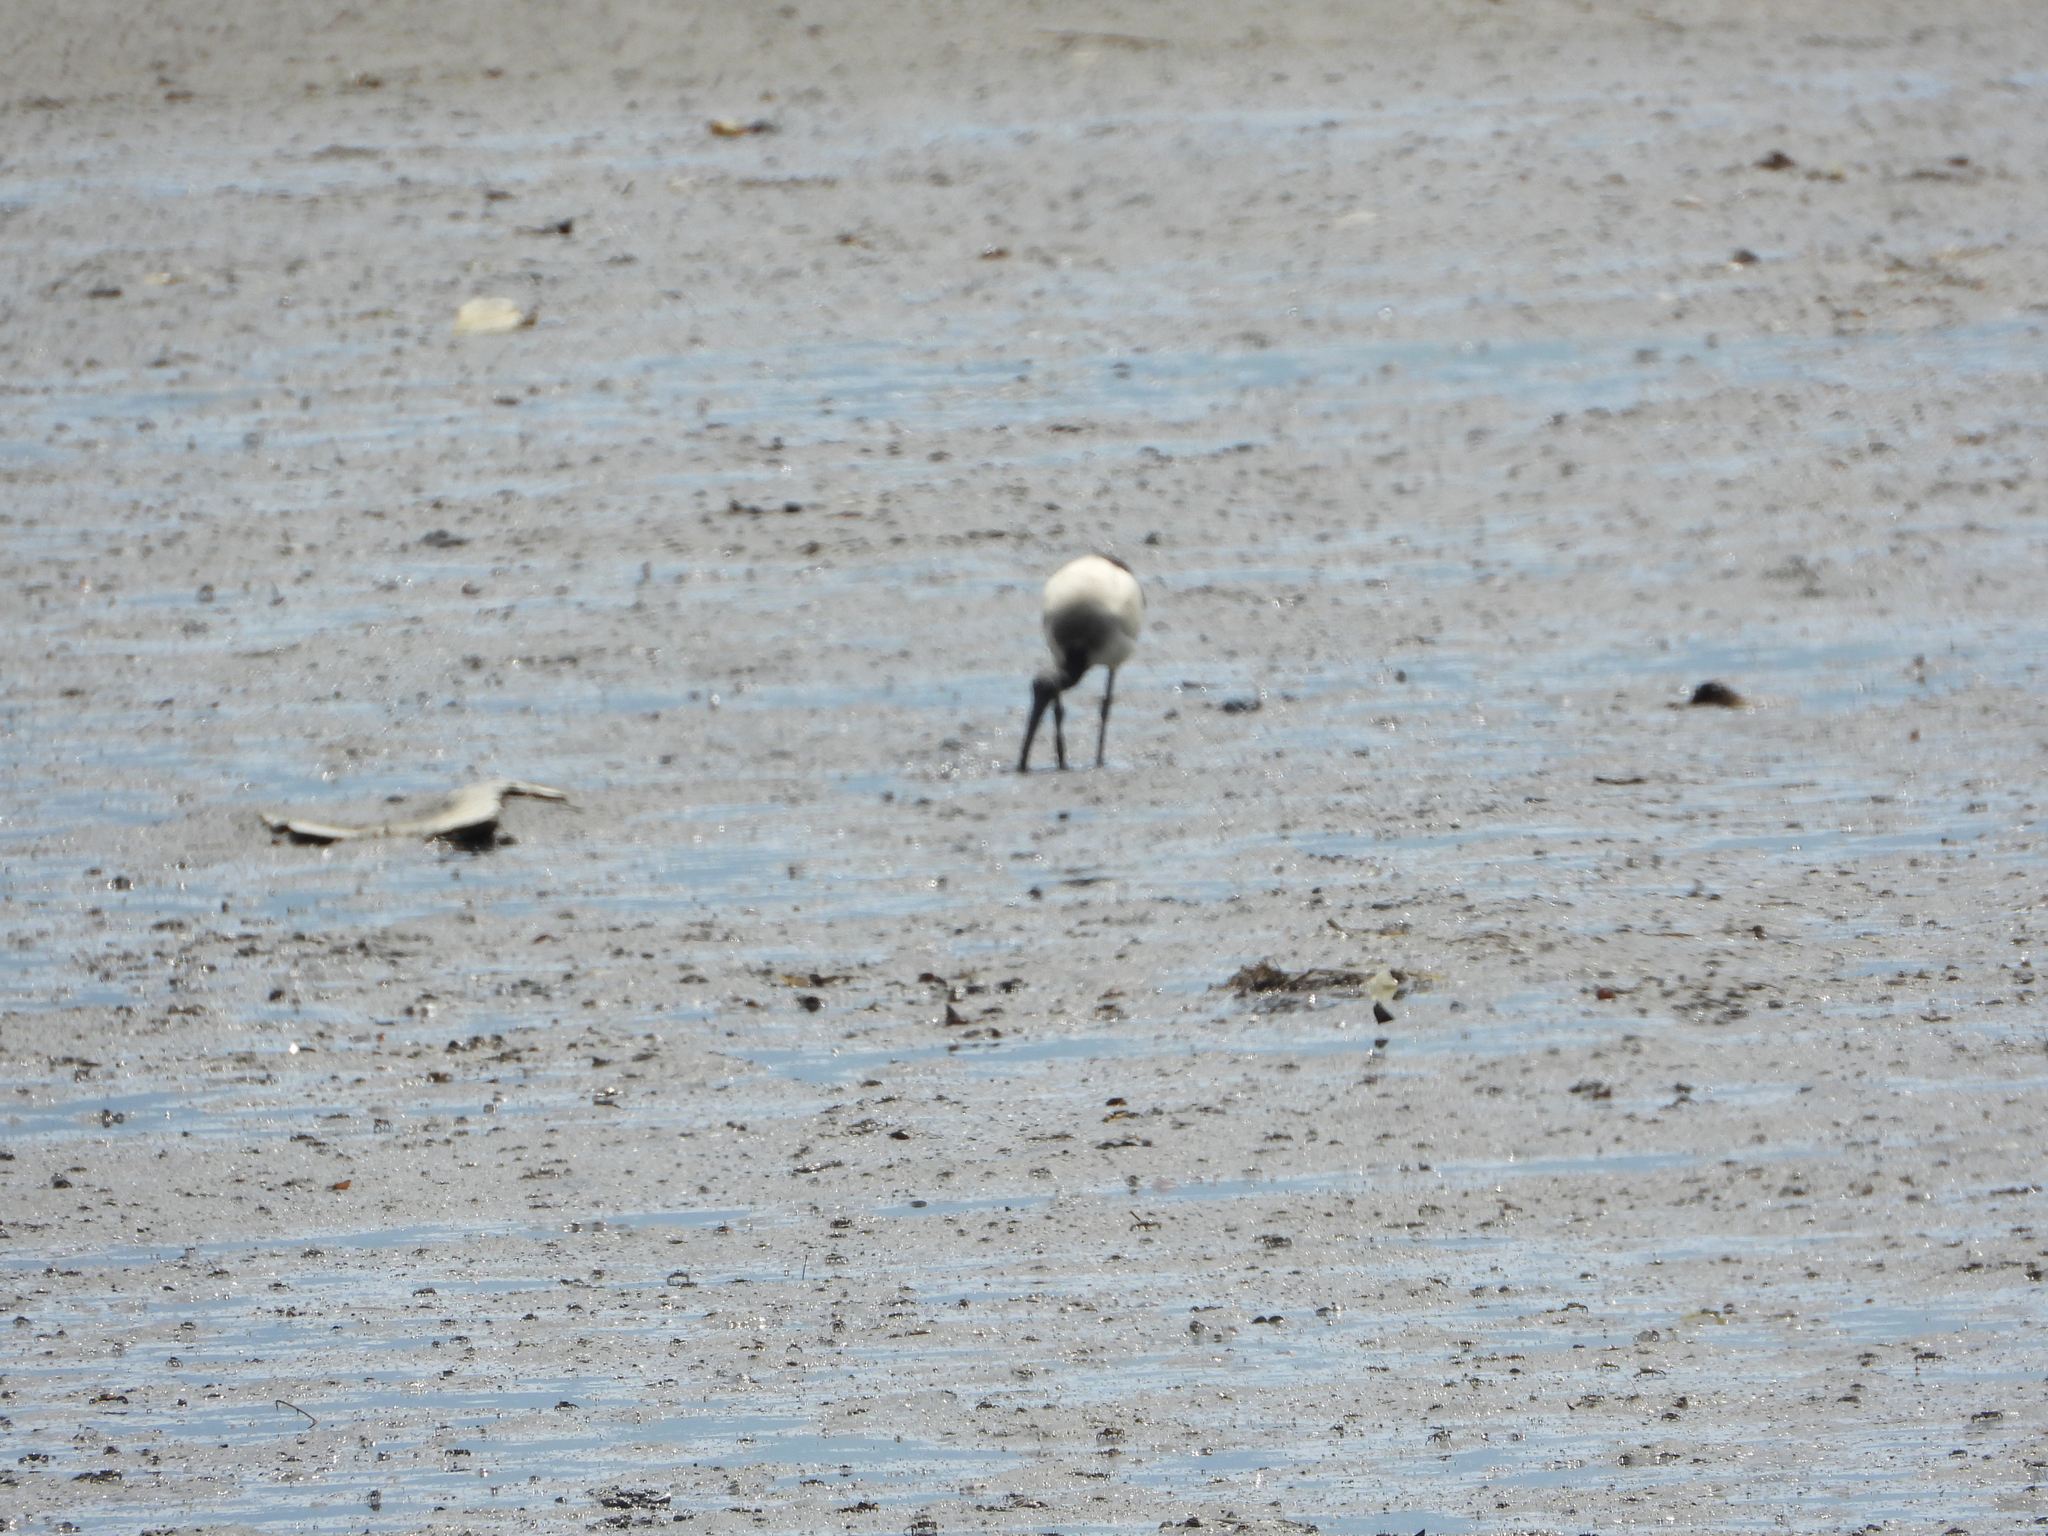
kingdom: Animalia
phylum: Chordata
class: Aves
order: Pelecaniformes
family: Threskiornithidae
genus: Threskiornis
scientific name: Threskiornis aethiopicus
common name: Sacred ibis
